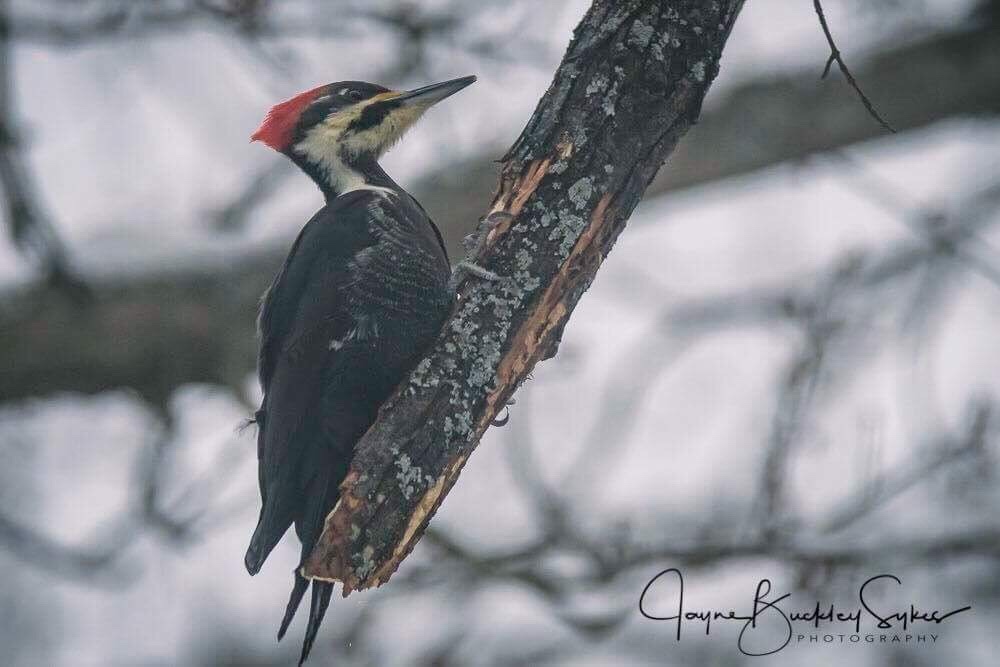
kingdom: Animalia
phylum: Chordata
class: Aves
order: Piciformes
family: Picidae
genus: Dryocopus
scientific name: Dryocopus pileatus
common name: Pileated woodpecker
